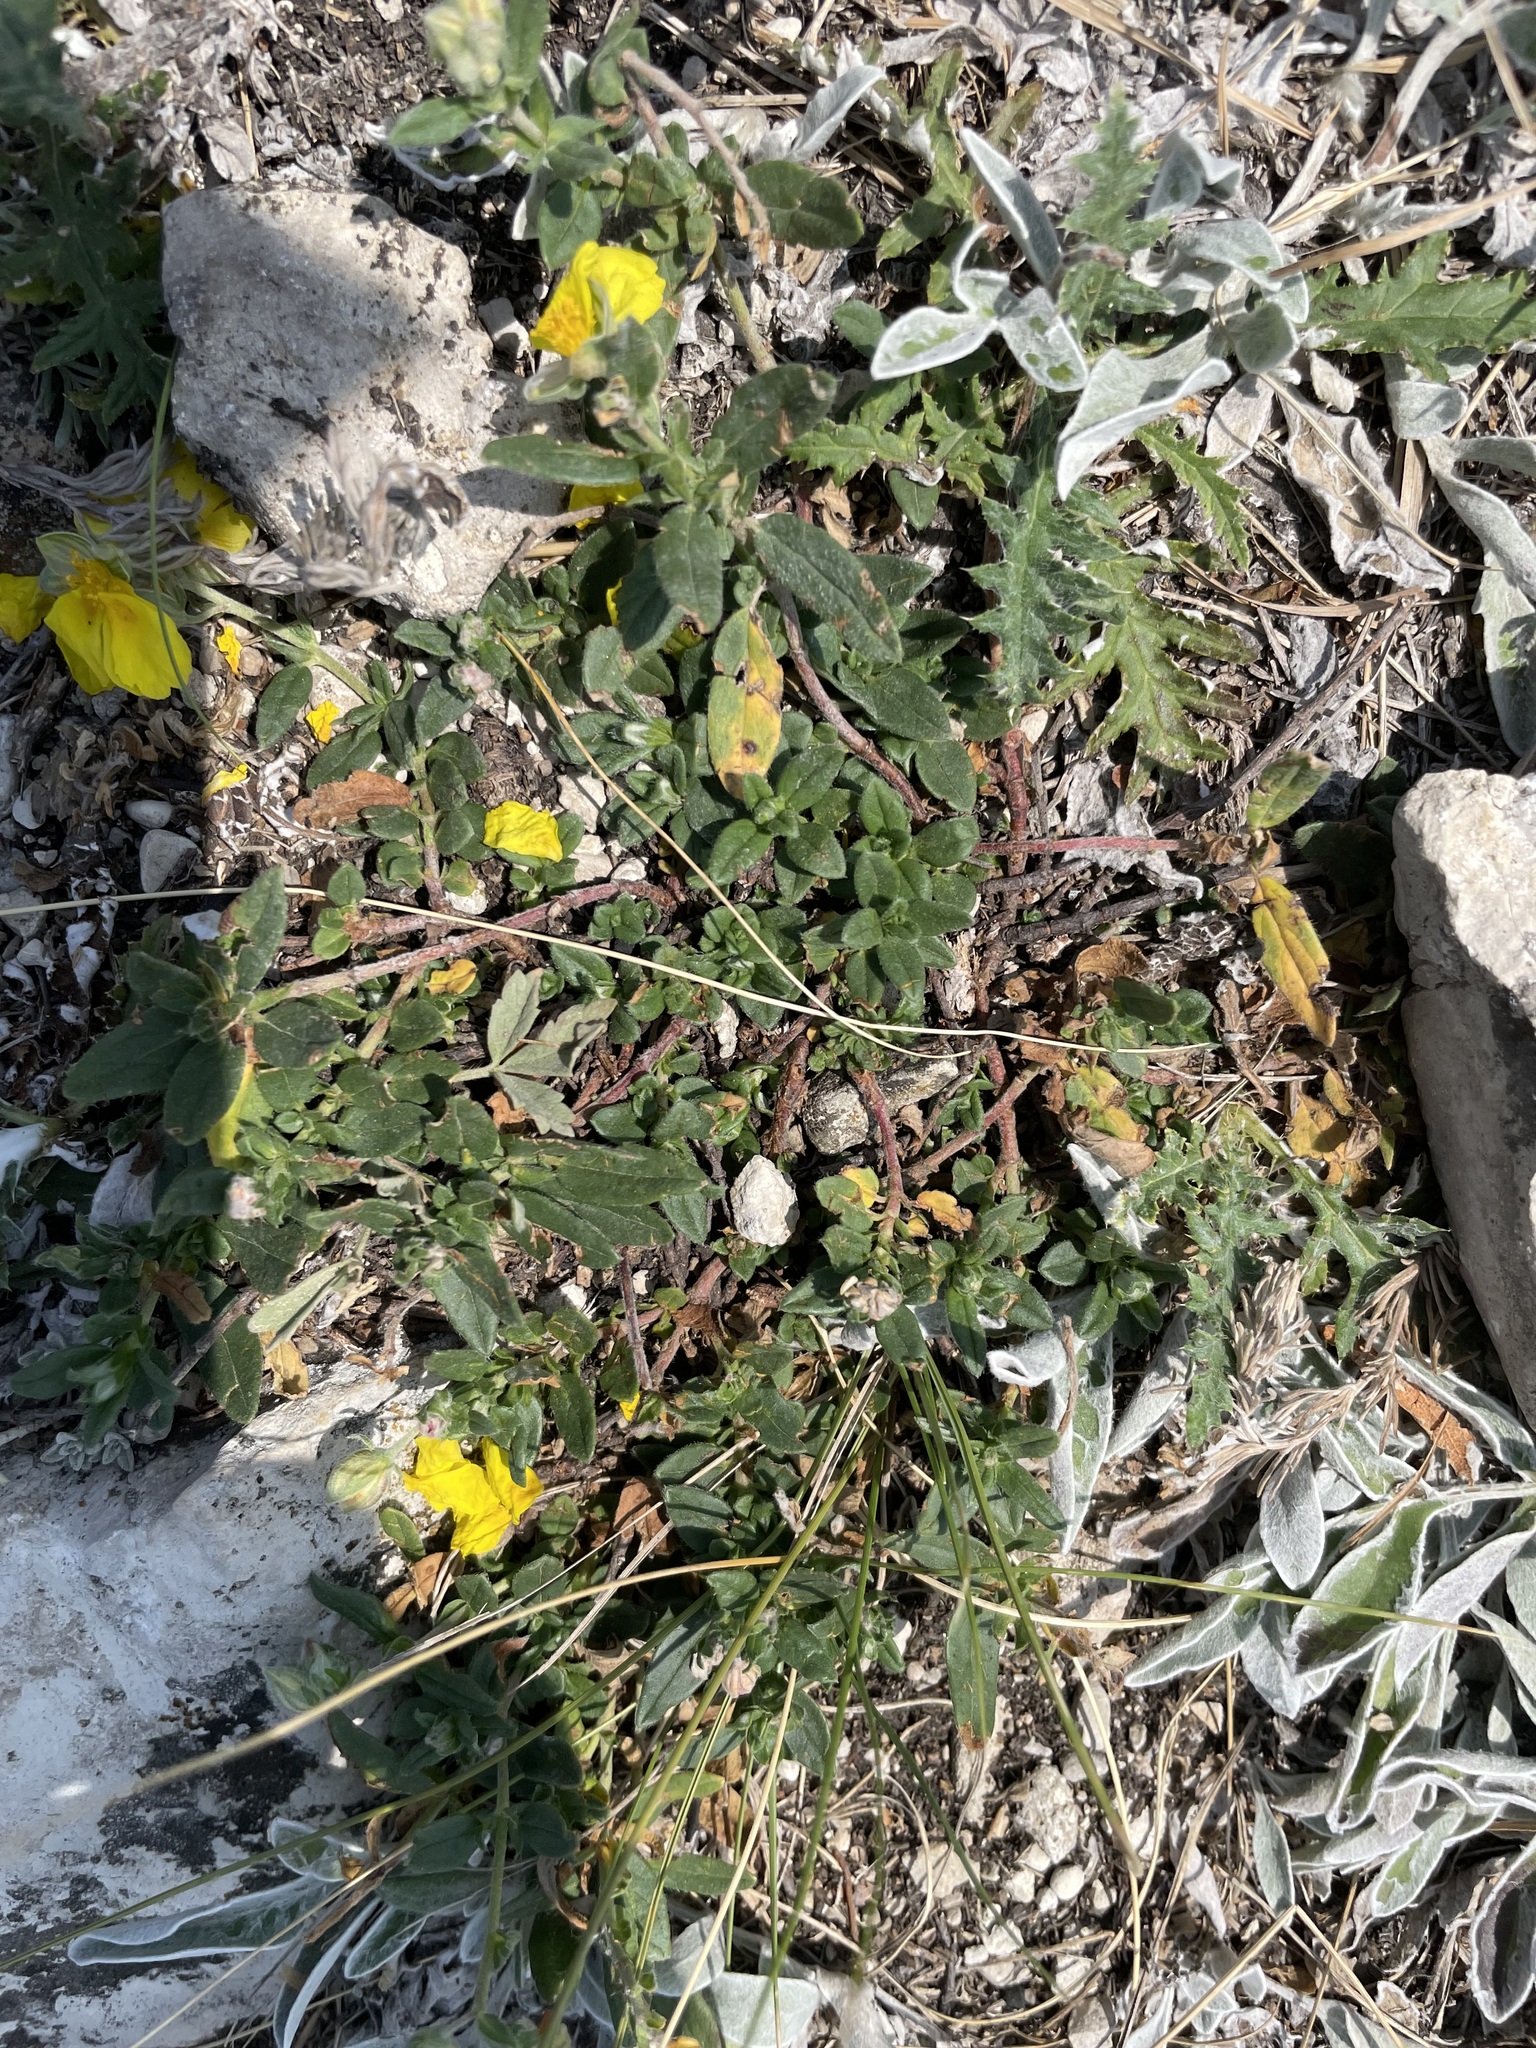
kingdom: Plantae
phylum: Tracheophyta
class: Magnoliopsida
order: Malvales
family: Cistaceae
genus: Helianthemum
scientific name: Helianthemum nummularium
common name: Common rock-rose
